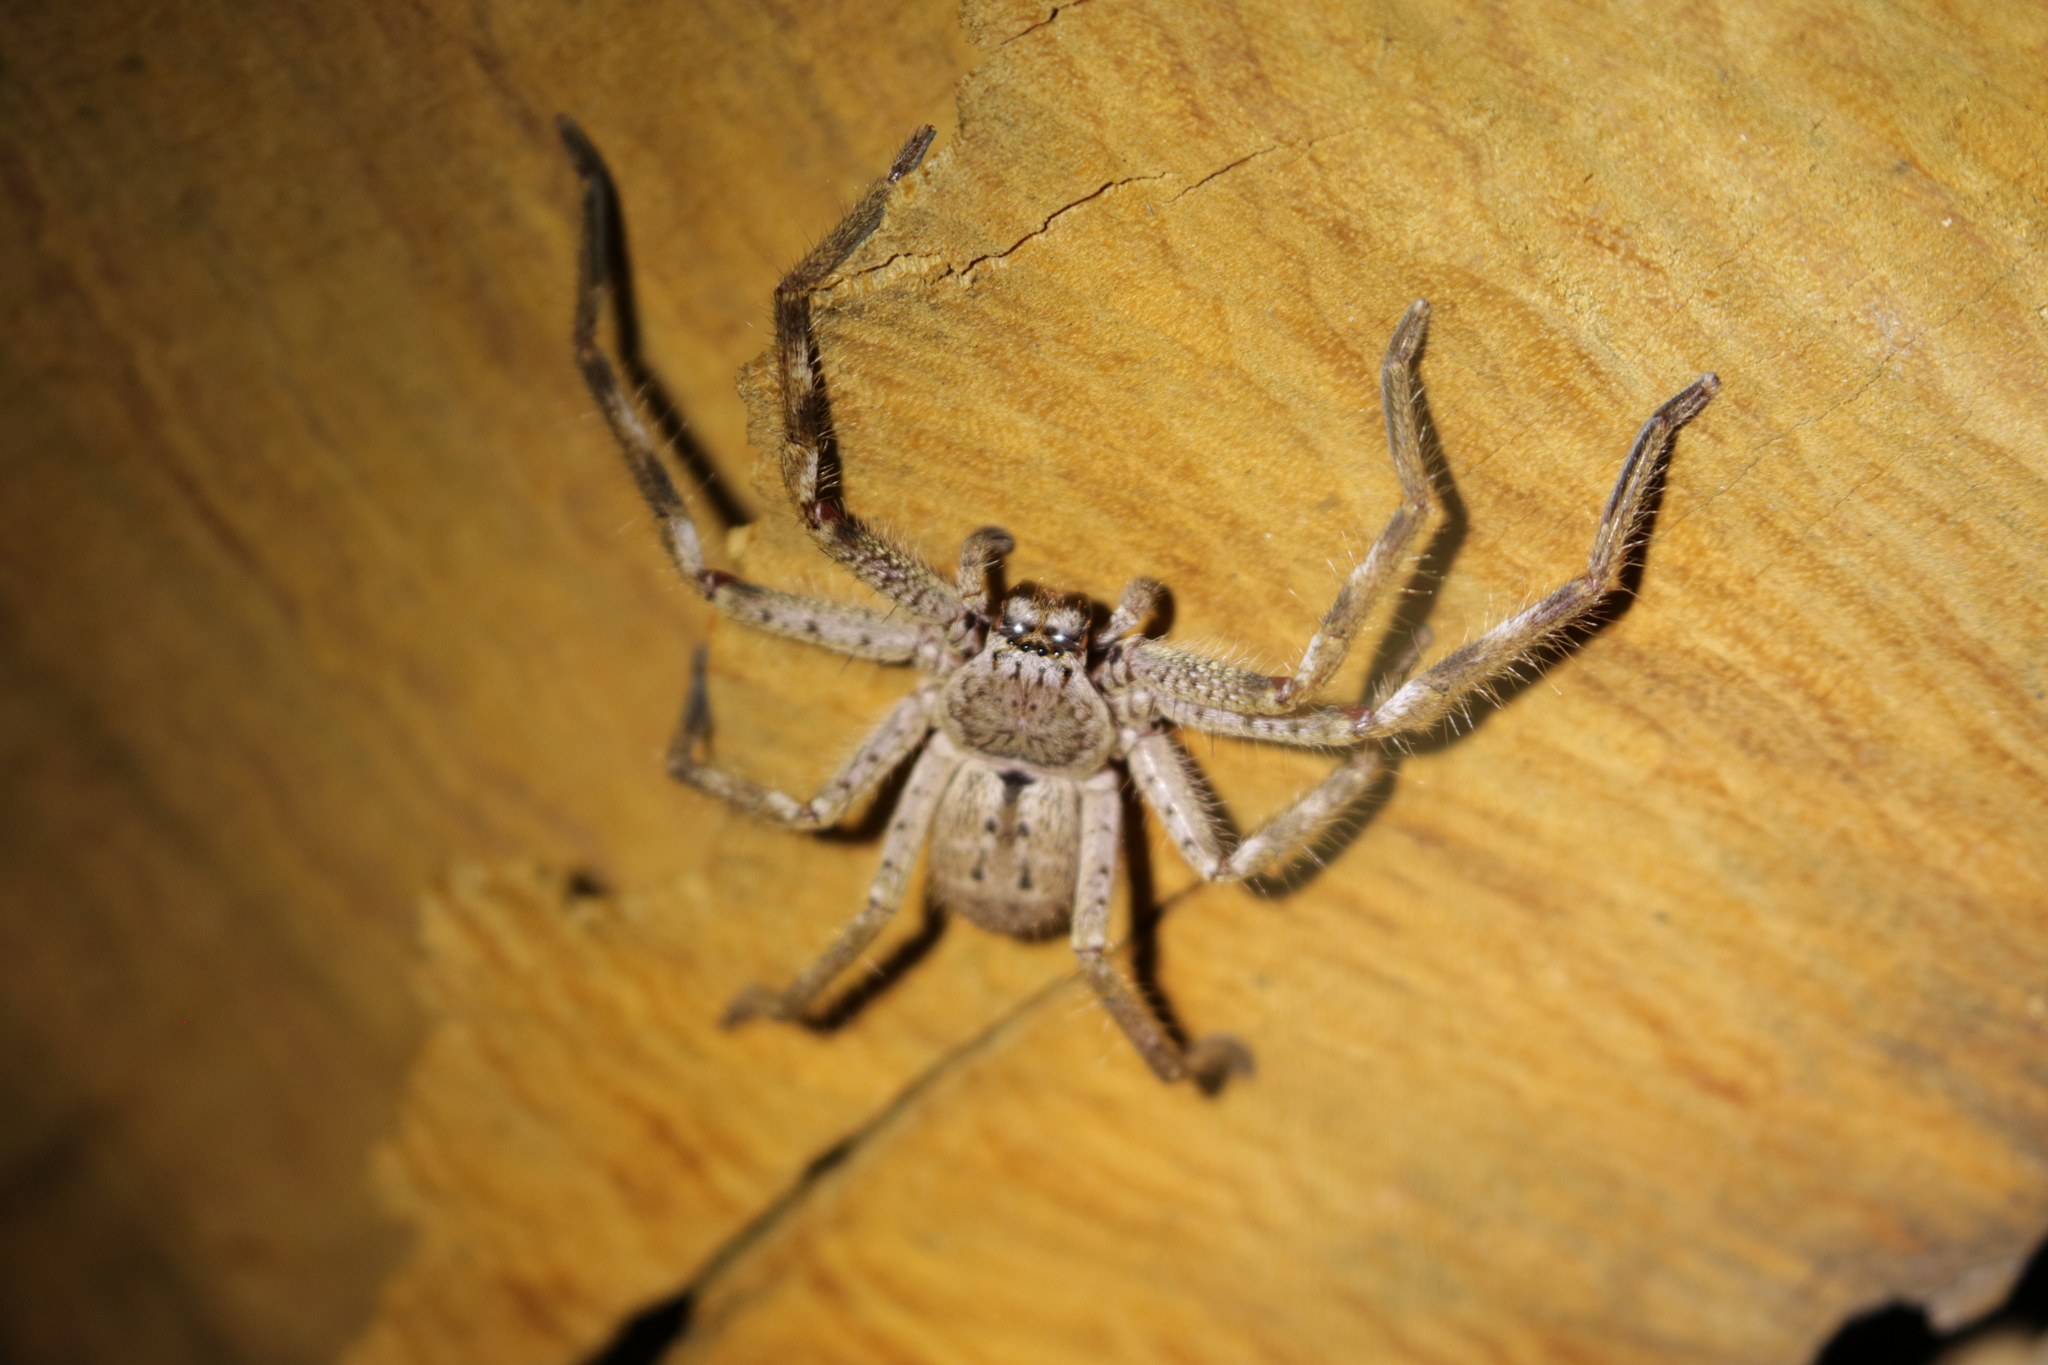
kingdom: Animalia
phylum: Arthropoda
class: Arachnida
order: Araneae
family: Sparassidae
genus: Isopeda
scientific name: Isopeda montana
